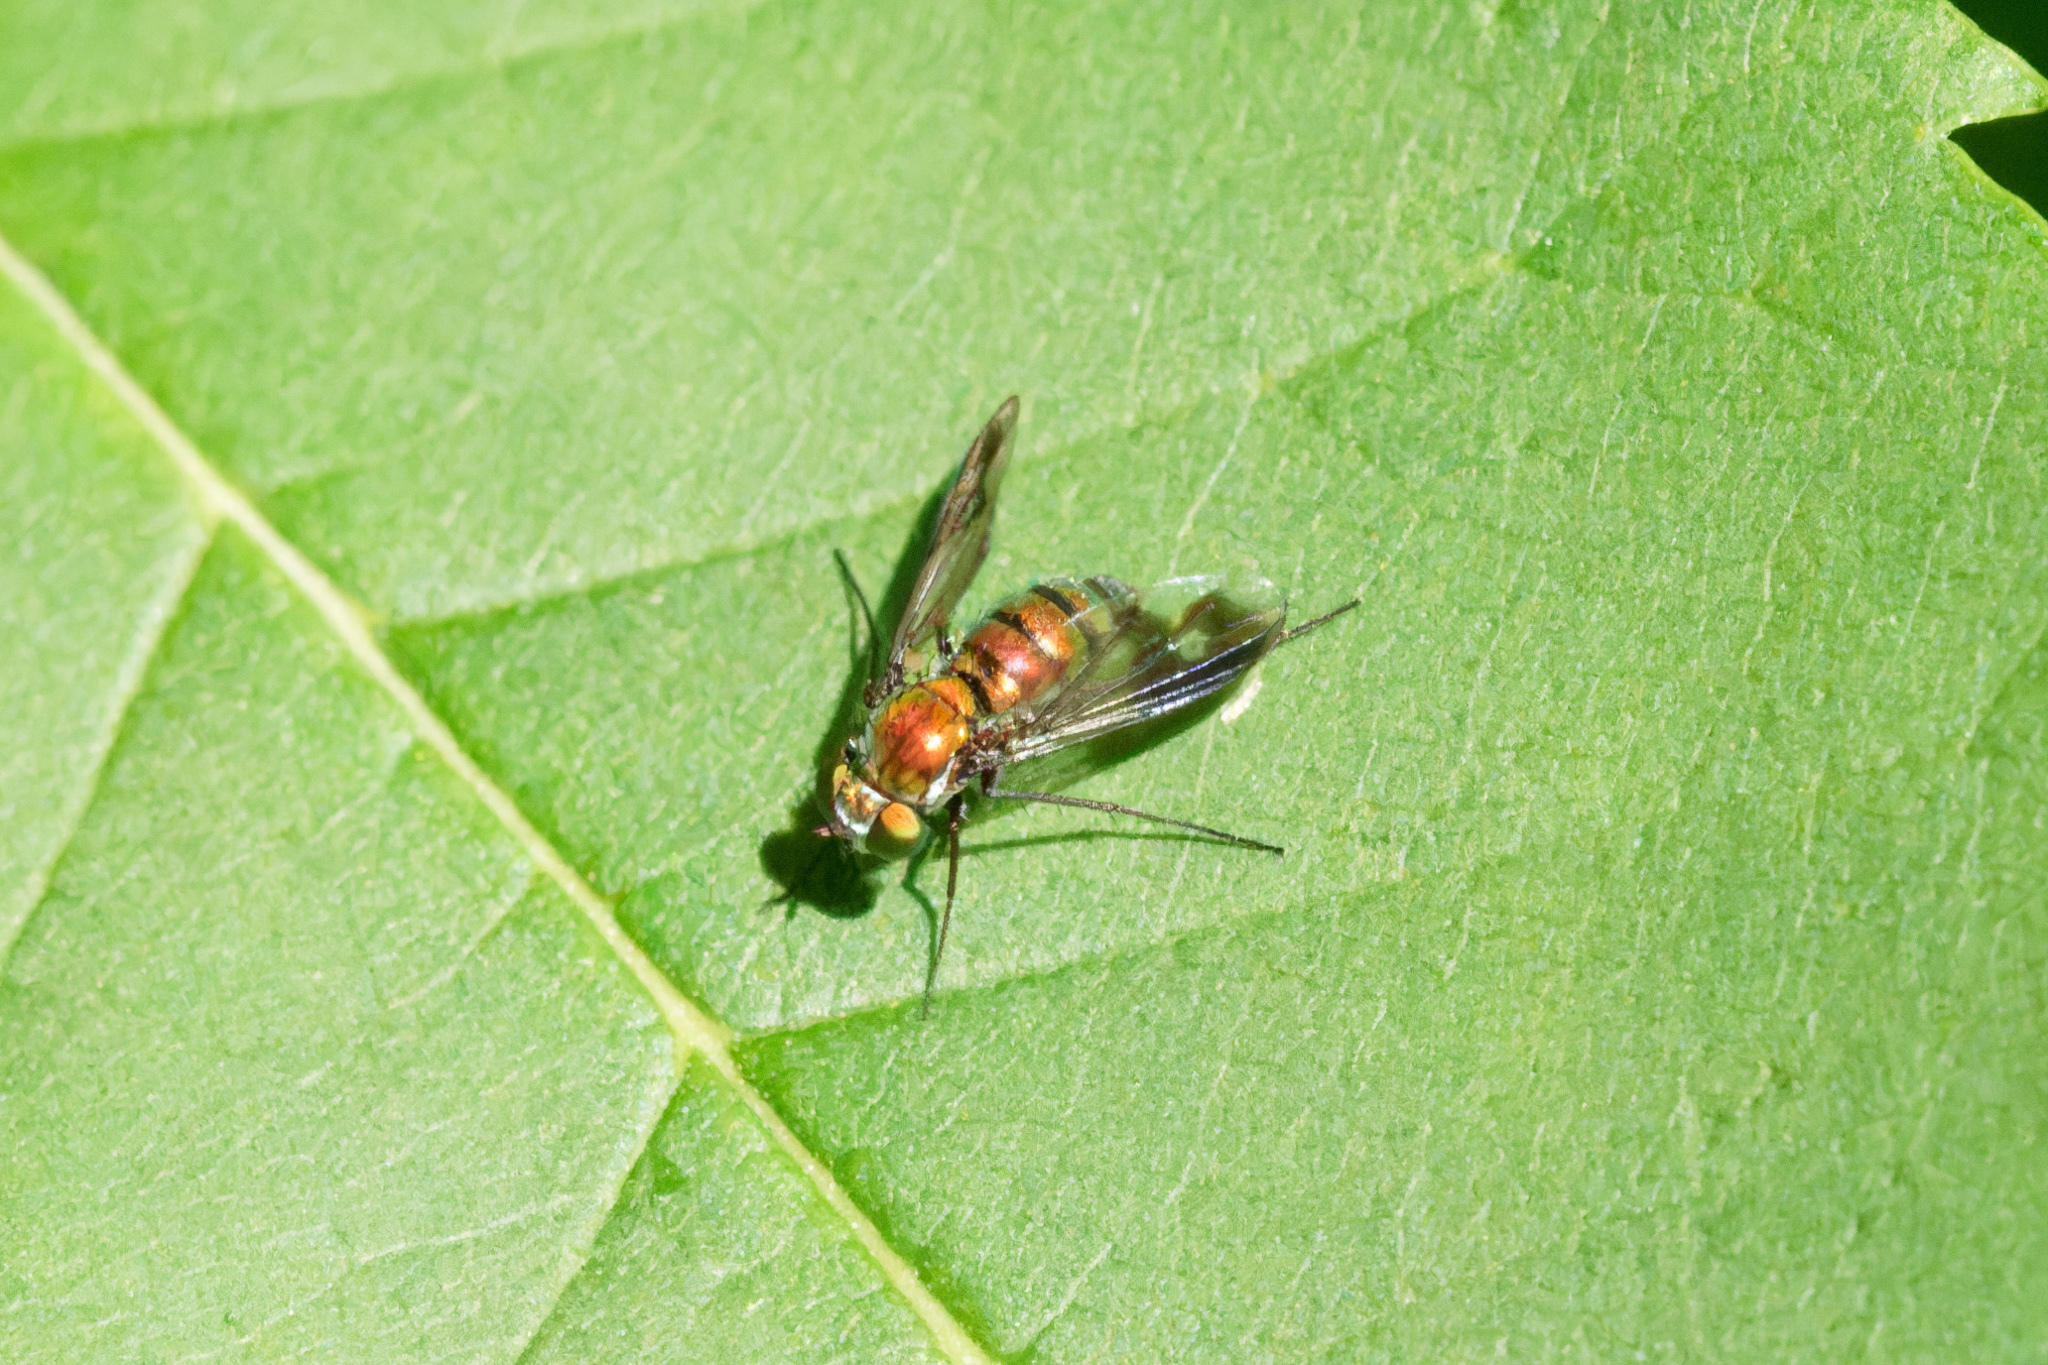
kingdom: Animalia
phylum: Arthropoda
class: Insecta
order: Diptera
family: Dolichopodidae
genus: Condylostylus
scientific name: Condylostylus patibulatus
